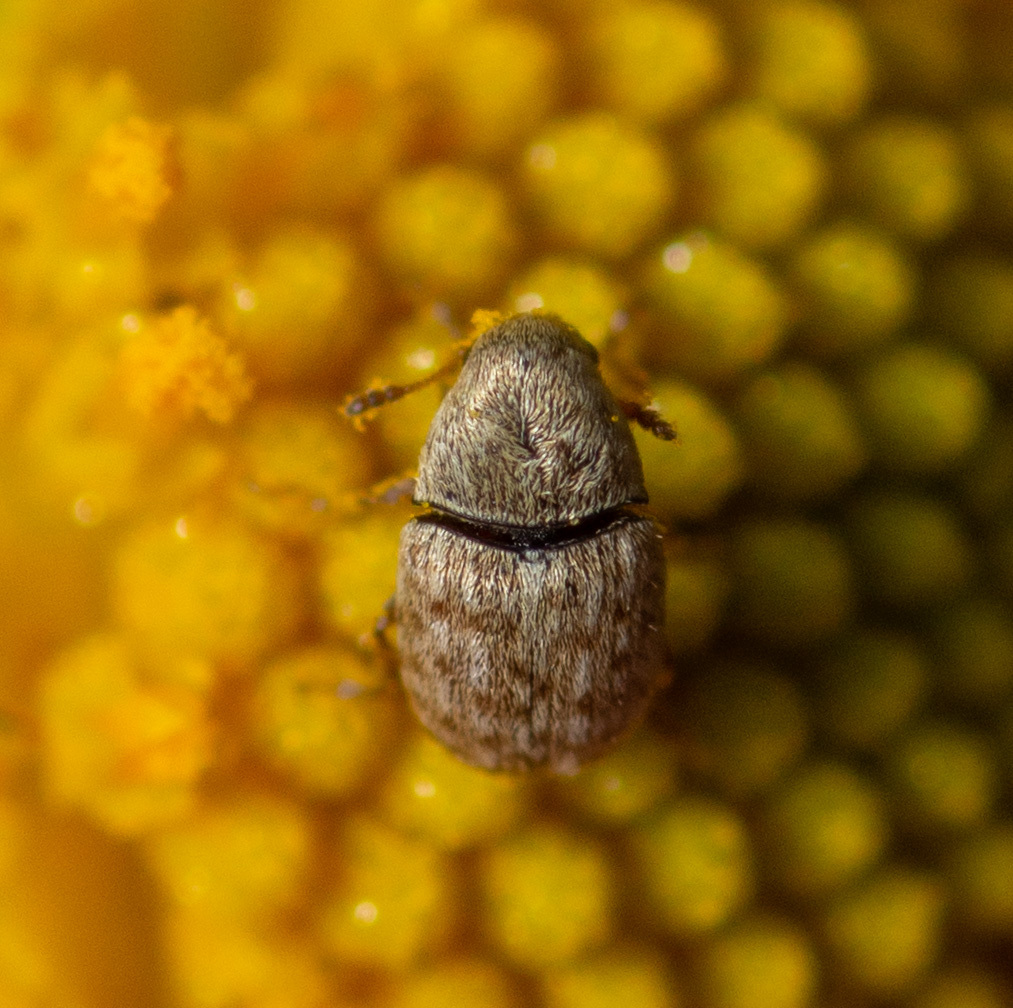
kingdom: Animalia
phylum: Arthropoda
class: Insecta
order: Coleoptera
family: Anthribidae
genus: Trigonorhinus
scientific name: Trigonorhinus limbatus
